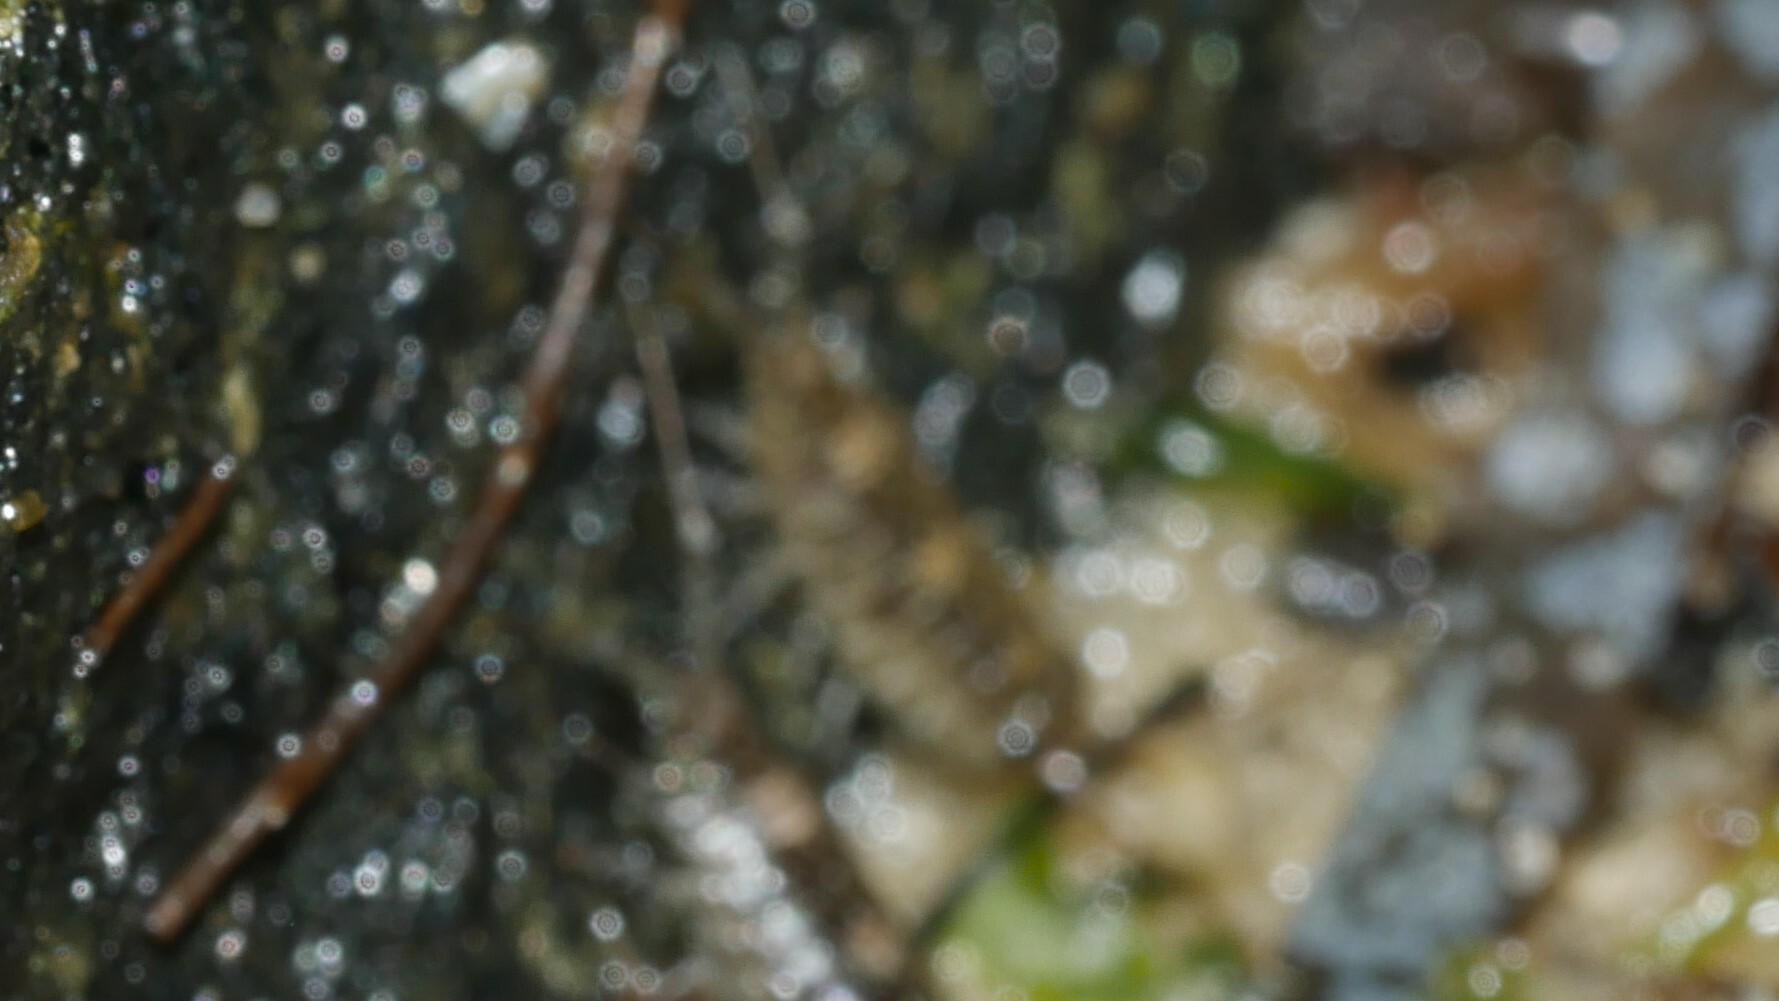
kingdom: Animalia
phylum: Arthropoda
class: Malacostraca
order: Isopoda
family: Ligiidae
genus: Ligia
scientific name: Ligia exotica
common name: Wharf roach
